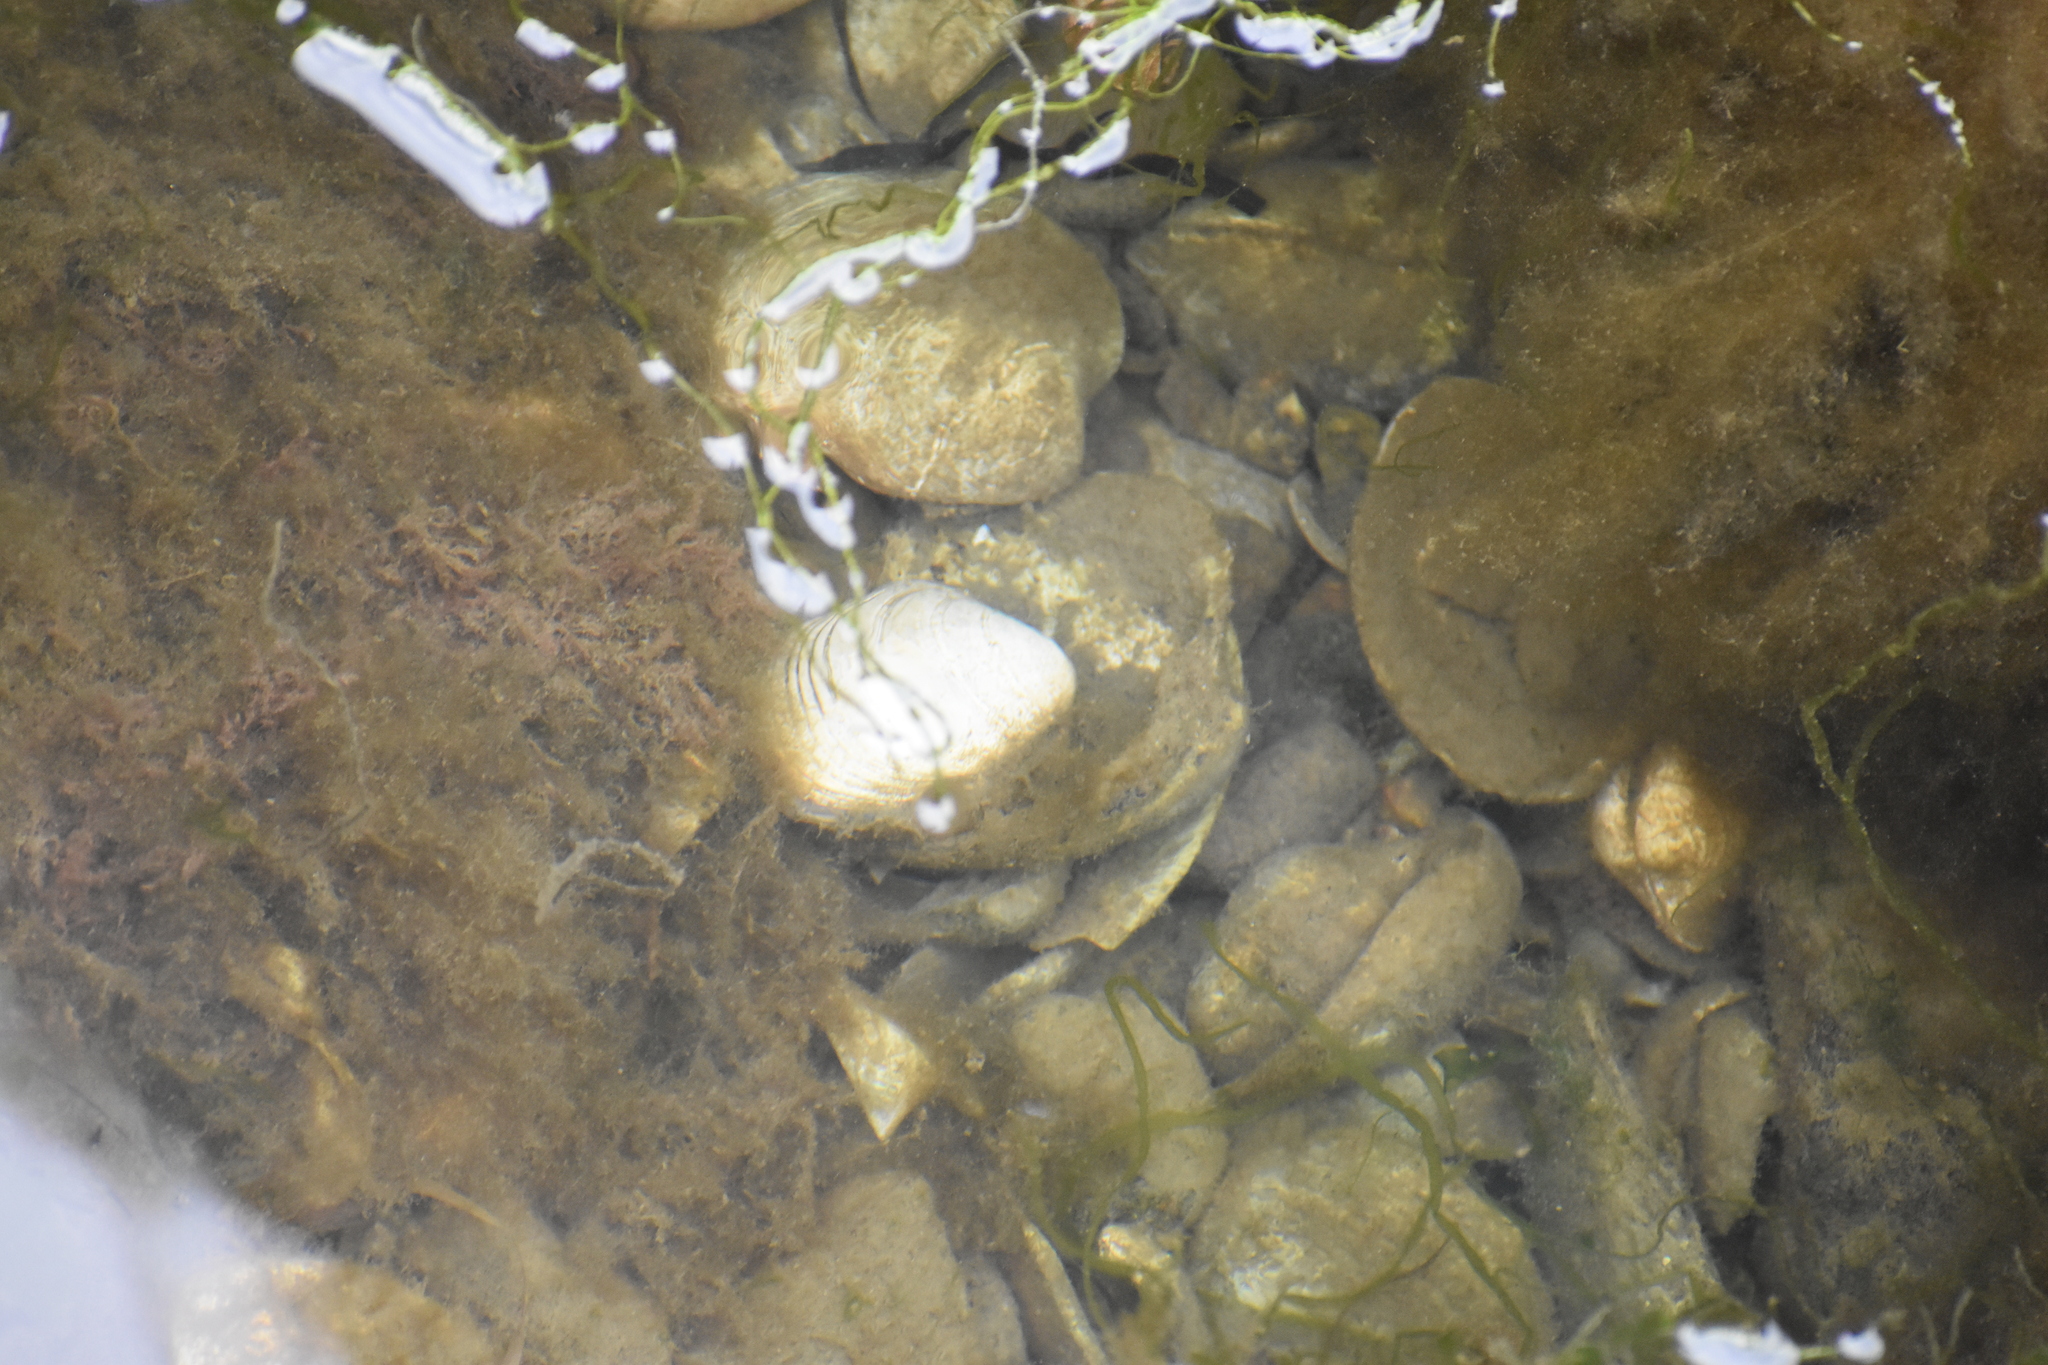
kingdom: Animalia
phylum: Mollusca
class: Bivalvia
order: Venerida
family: Veneridae
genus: Mercenaria
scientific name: Mercenaria mercenaria
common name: American hard-shelled clam
